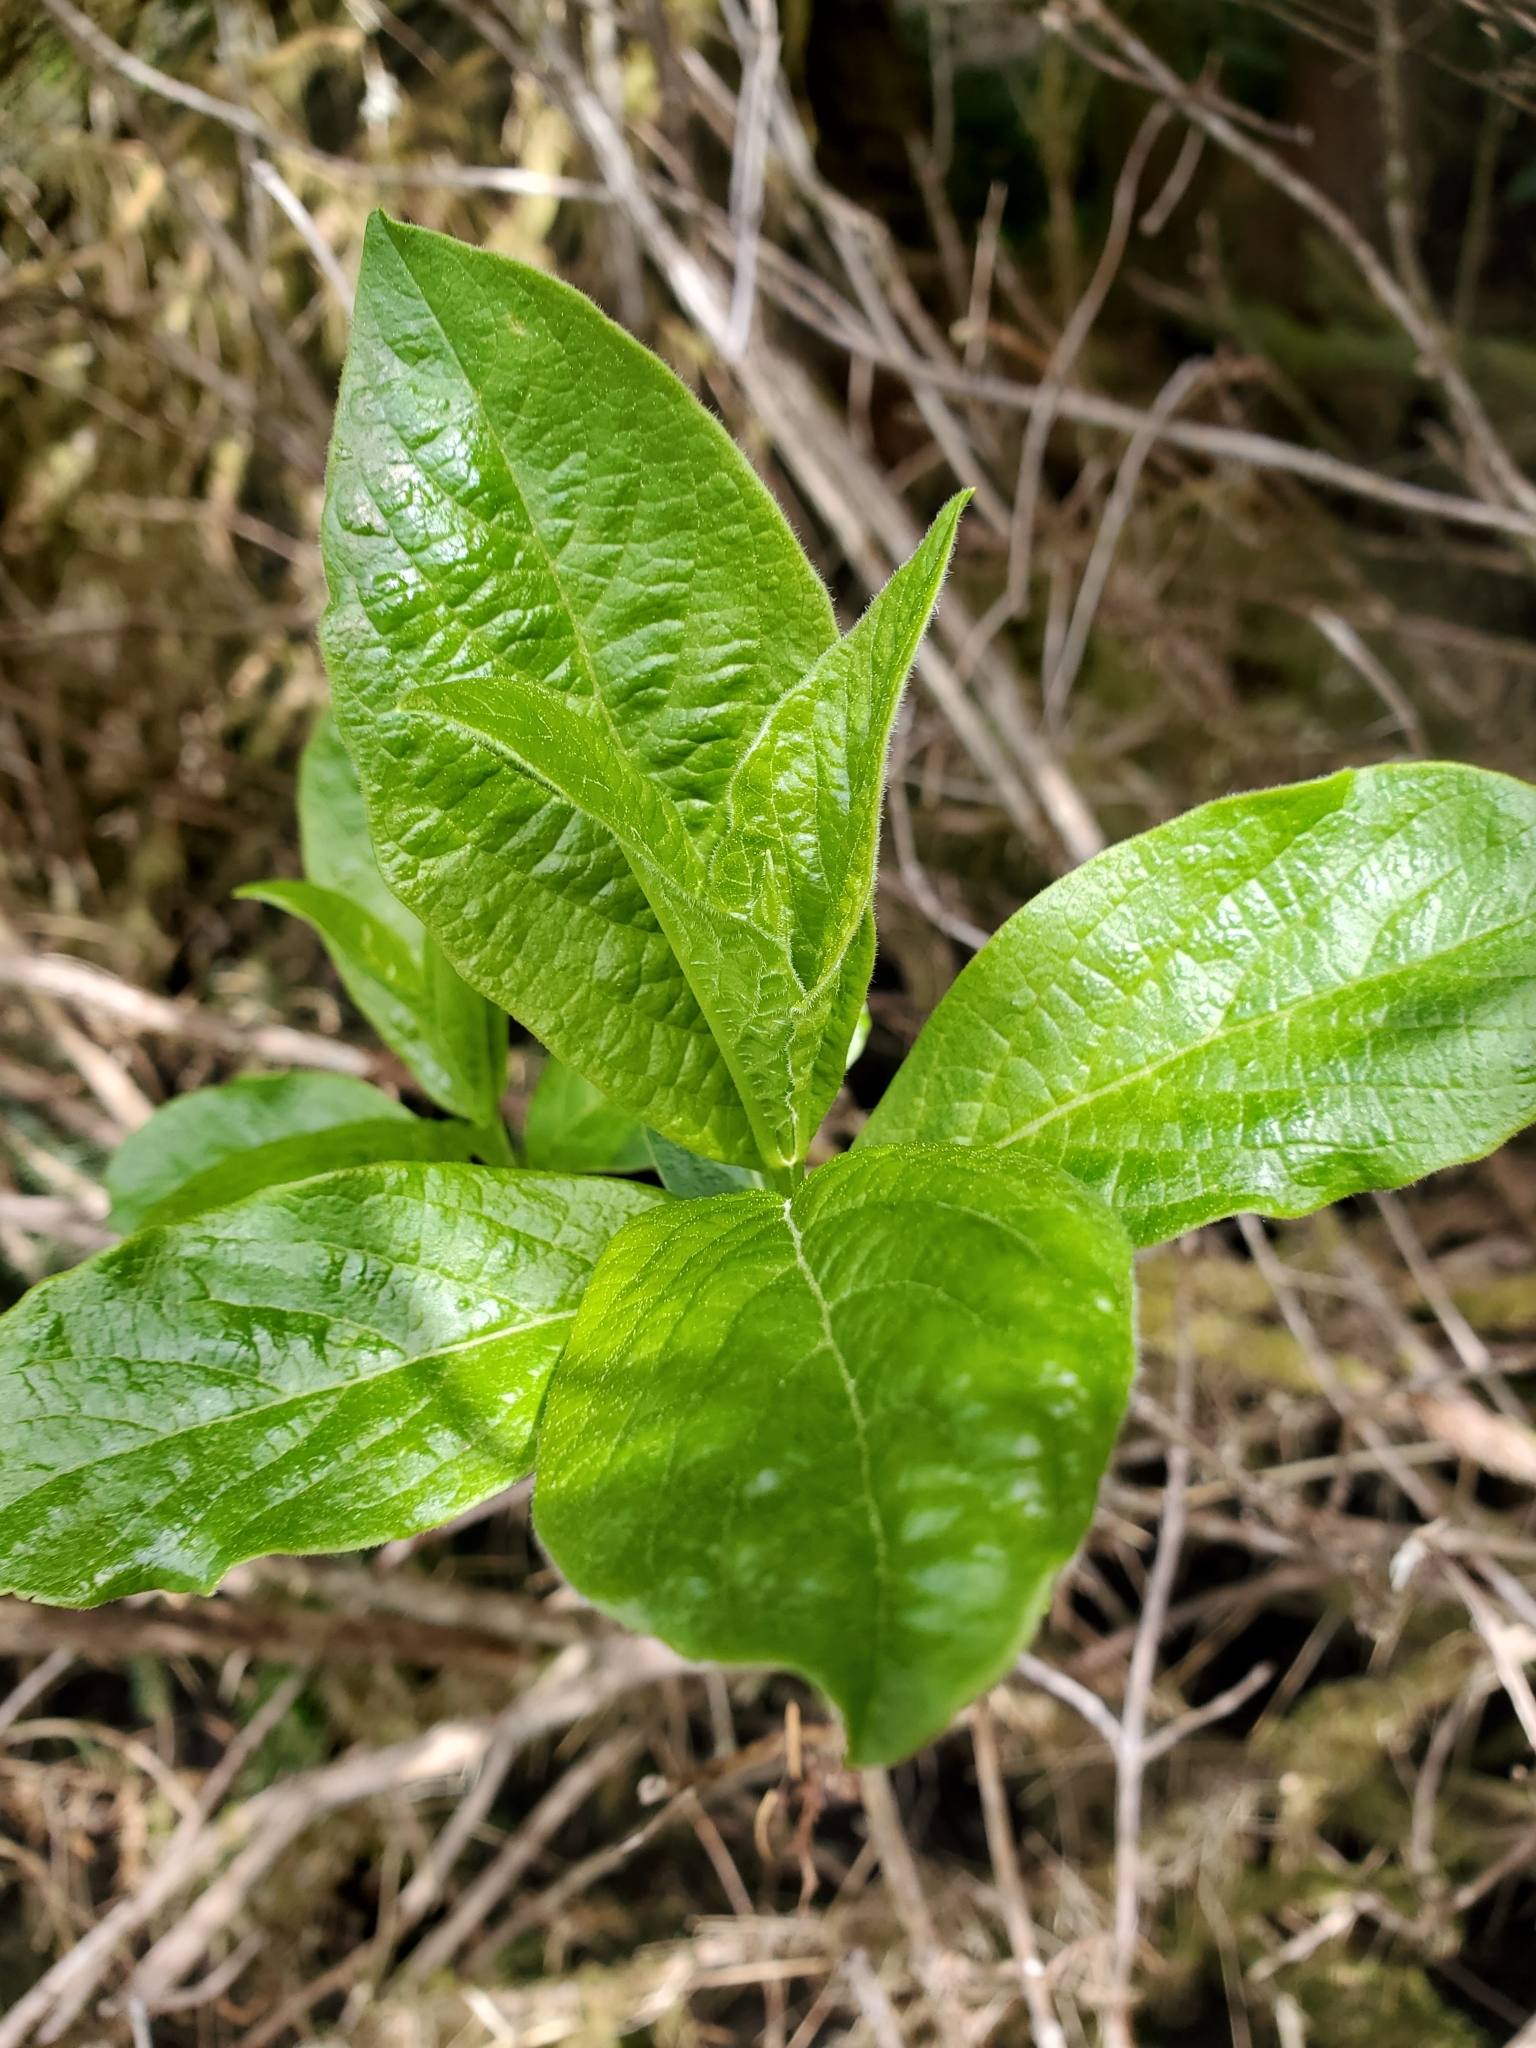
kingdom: Plantae
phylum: Tracheophyta
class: Magnoliopsida
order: Dipsacales
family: Caprifoliaceae
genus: Lonicera
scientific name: Lonicera involucrata
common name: Californian honeysuckle
